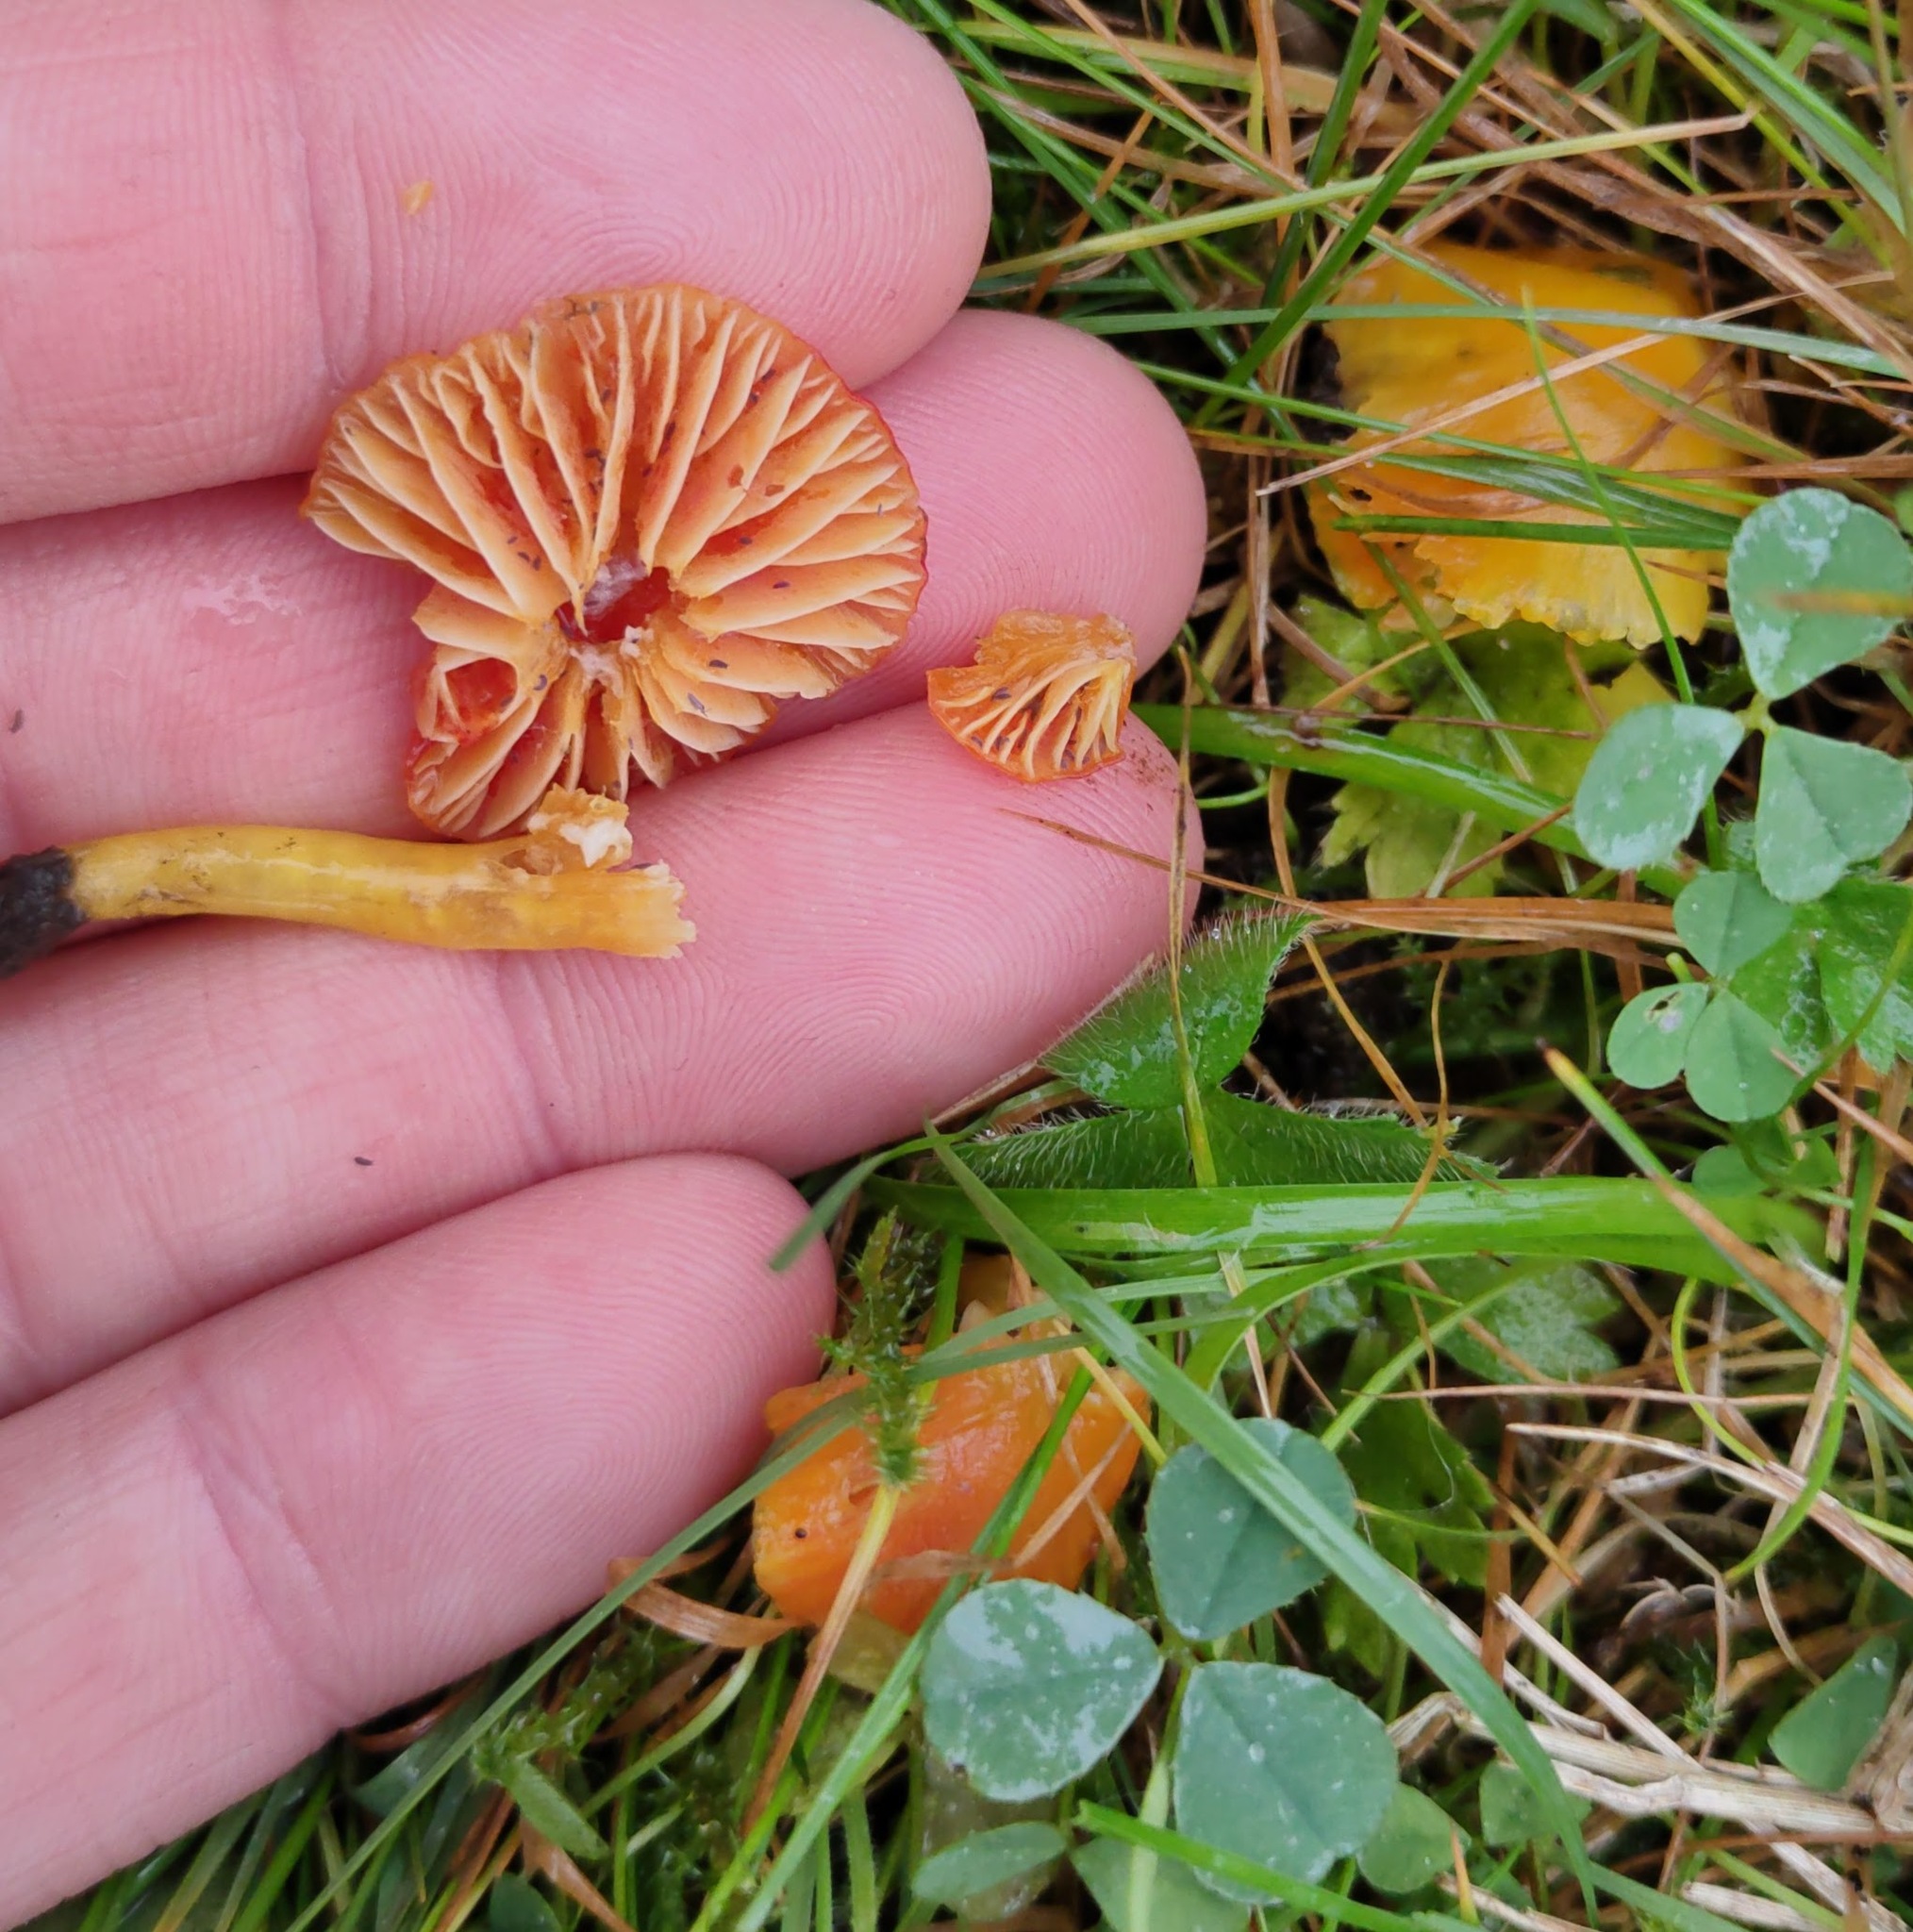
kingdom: Fungi
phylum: Basidiomycota
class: Agaricomycetes
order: Agaricales
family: Hygrophoraceae
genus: Hygrocybe
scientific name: Hygrocybe insipida
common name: Spangle waxcap
